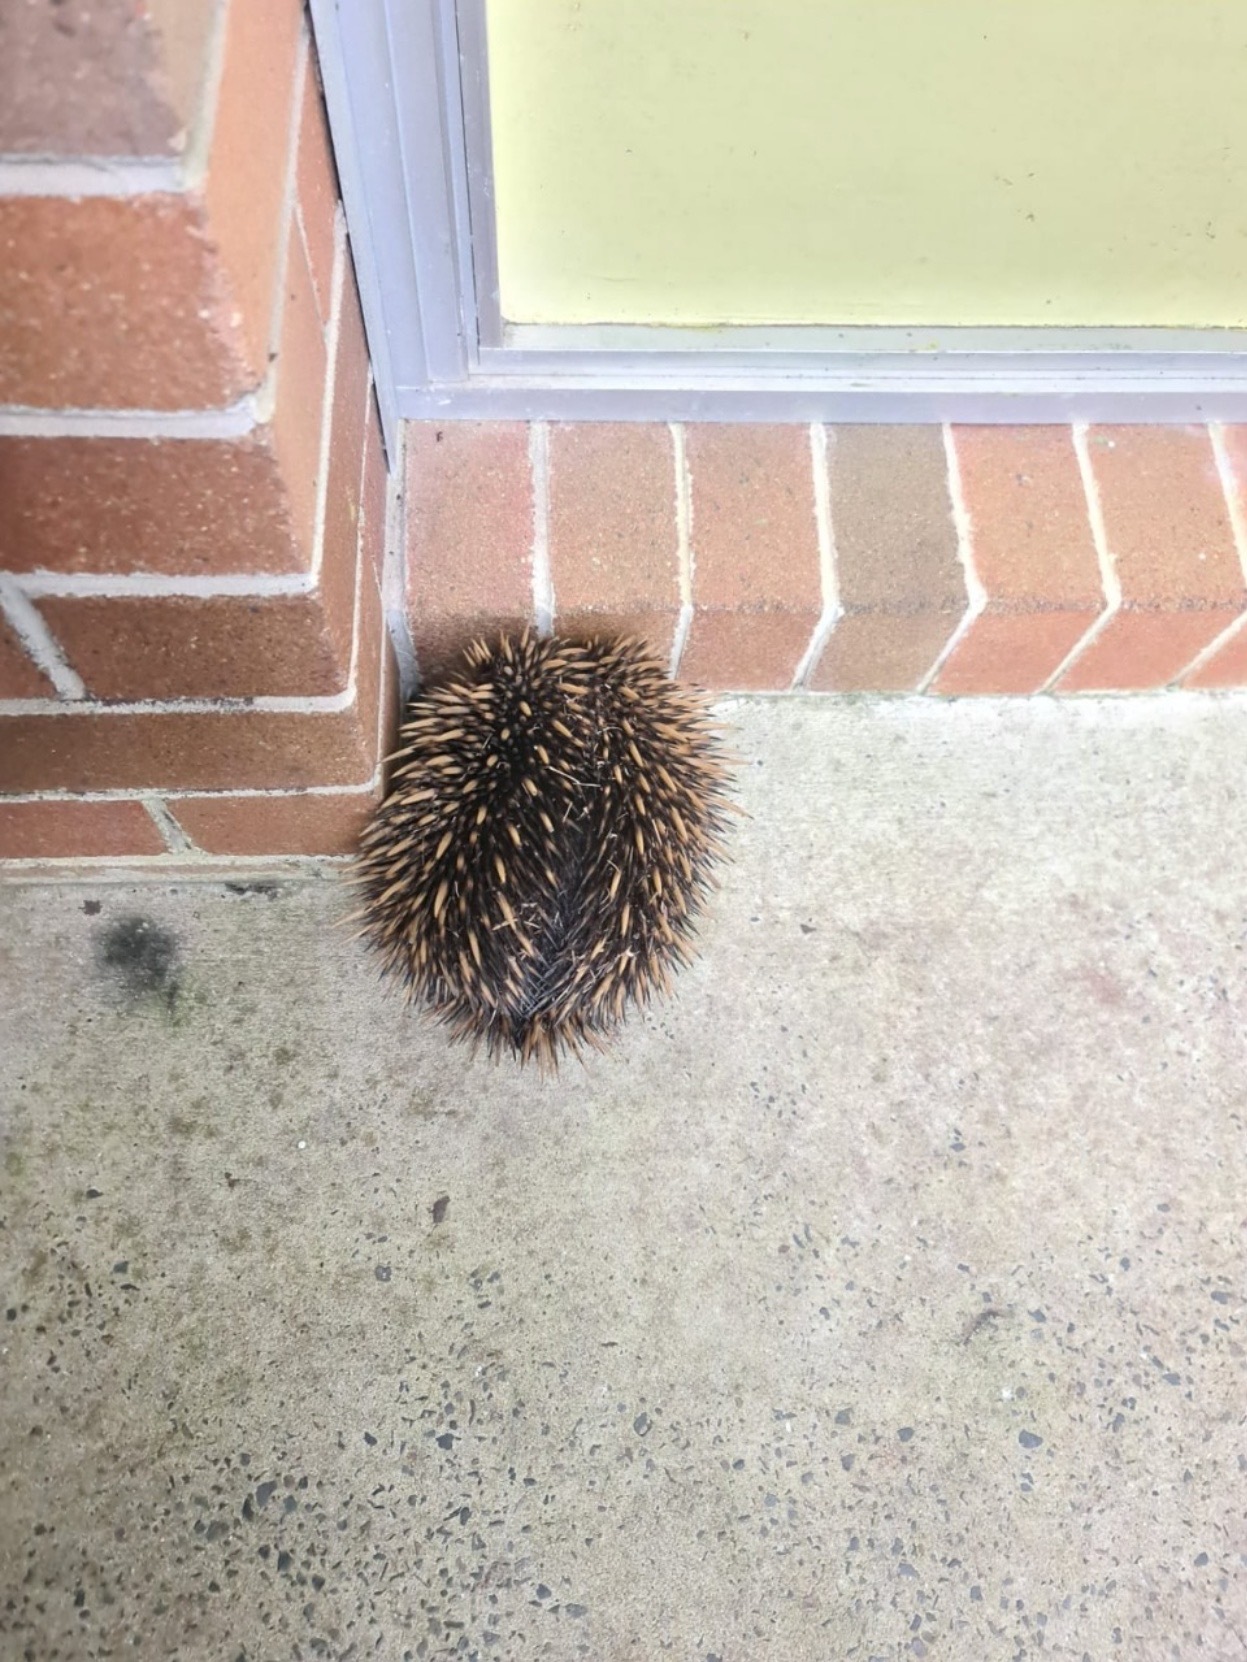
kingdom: Animalia
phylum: Chordata
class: Mammalia
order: Monotremata
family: Tachyglossidae
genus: Tachyglossus
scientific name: Tachyglossus aculeatus
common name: Short-beaked echidna
